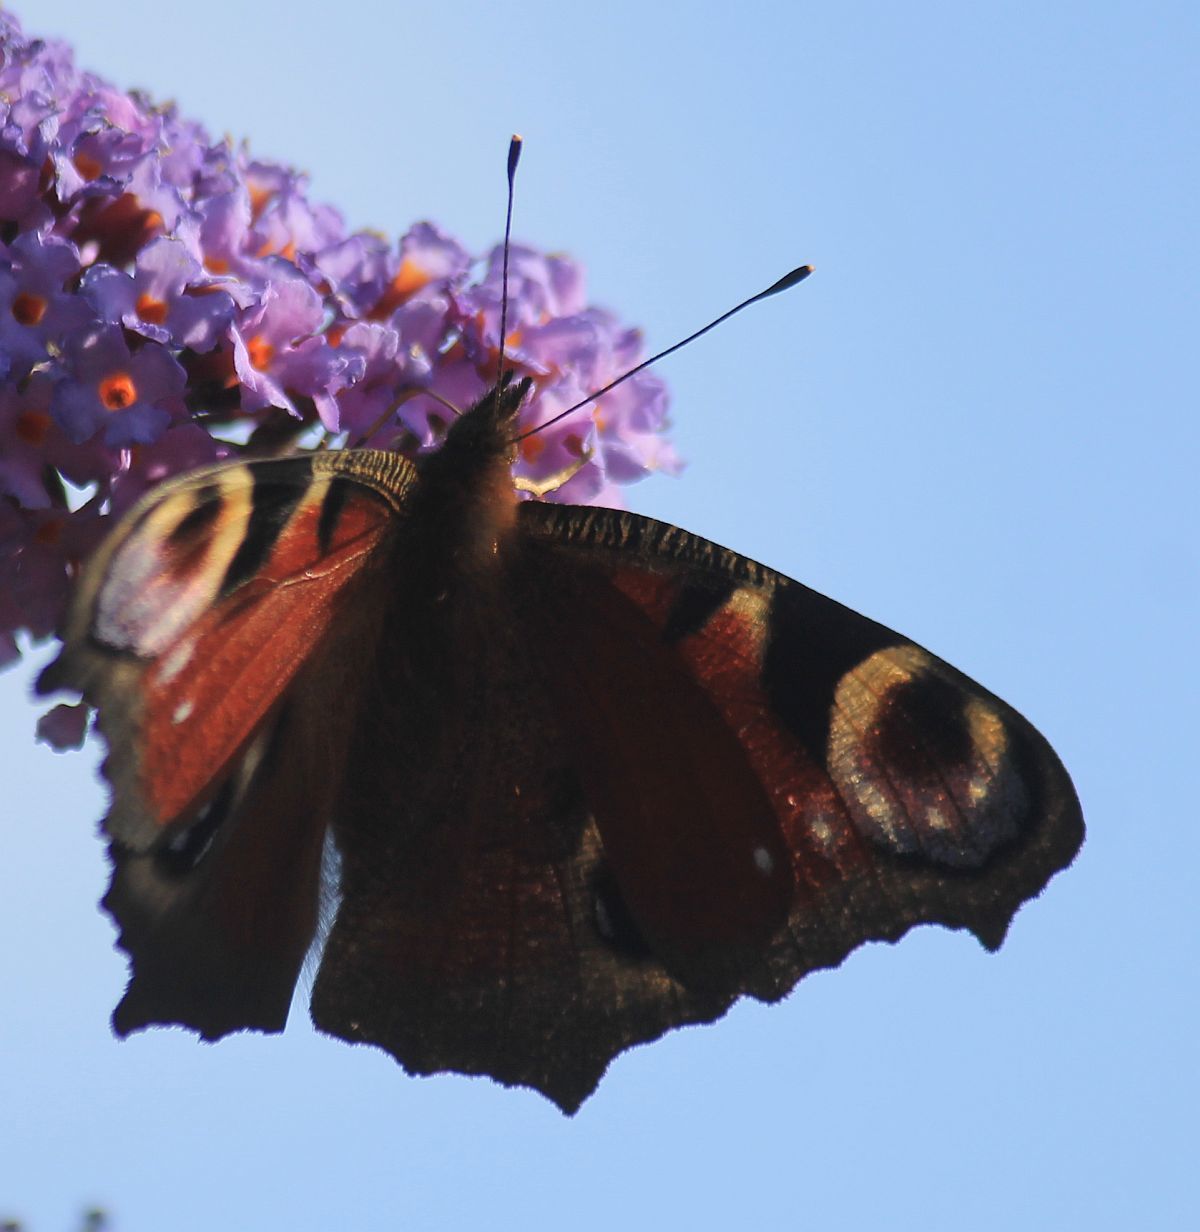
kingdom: Animalia
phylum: Arthropoda
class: Insecta
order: Lepidoptera
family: Nymphalidae
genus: Aglais
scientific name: Aglais io
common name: Peacock
